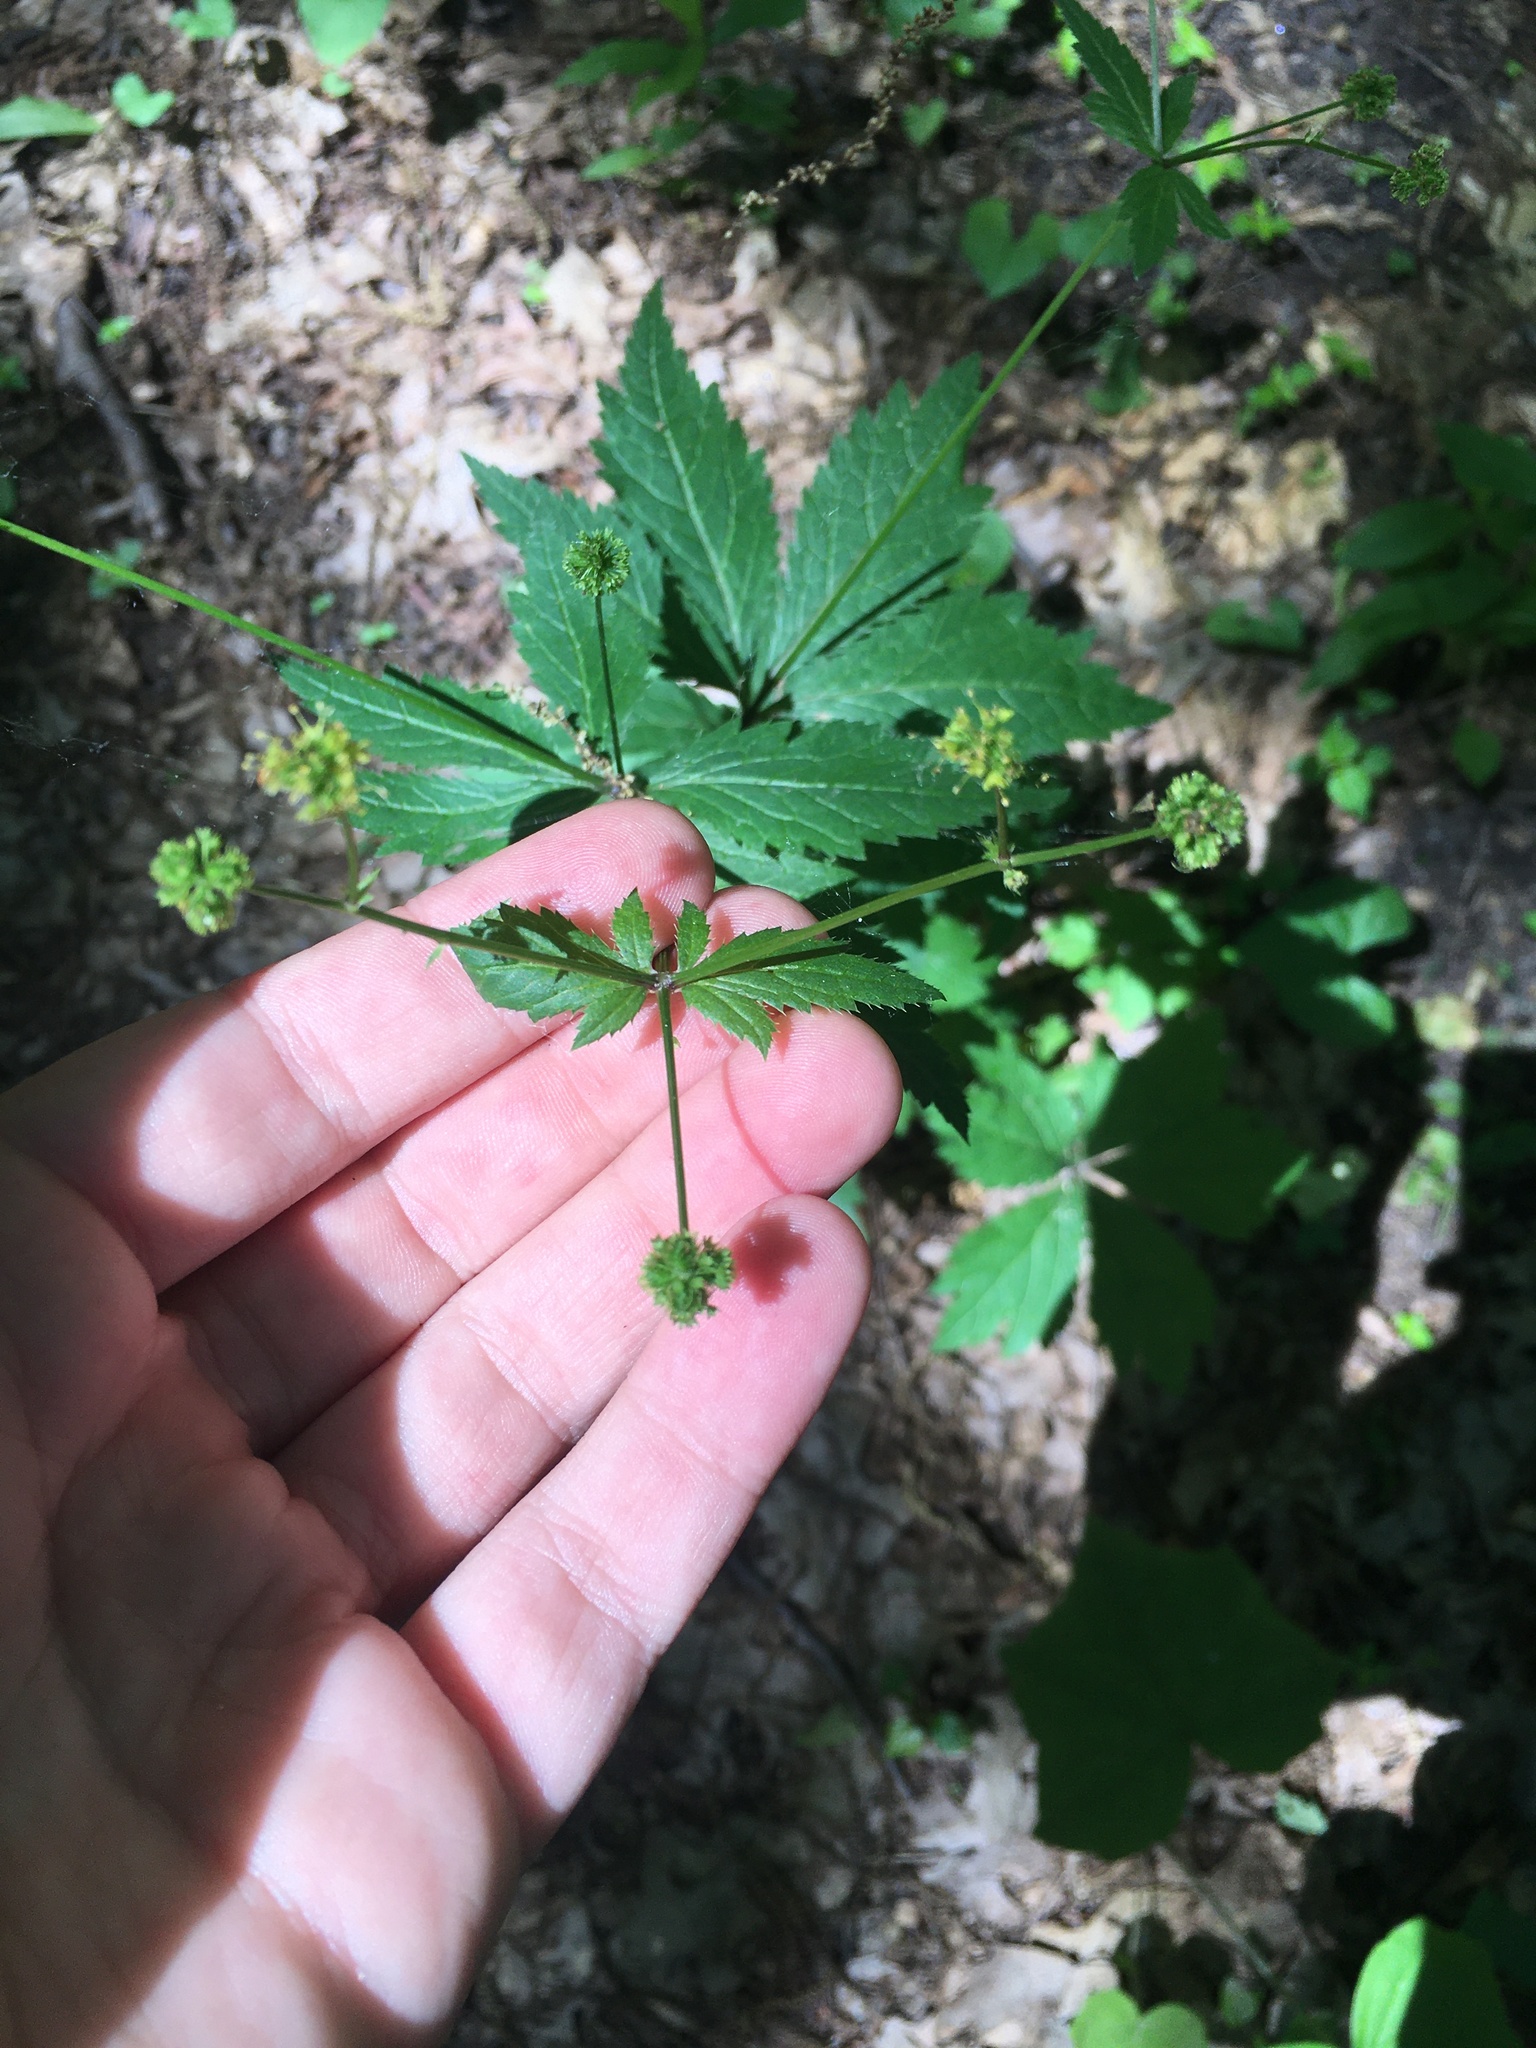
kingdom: Plantae
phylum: Tracheophyta
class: Magnoliopsida
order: Apiales
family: Apiaceae
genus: Sanicula
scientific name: Sanicula odorata
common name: Cluster sanicle
